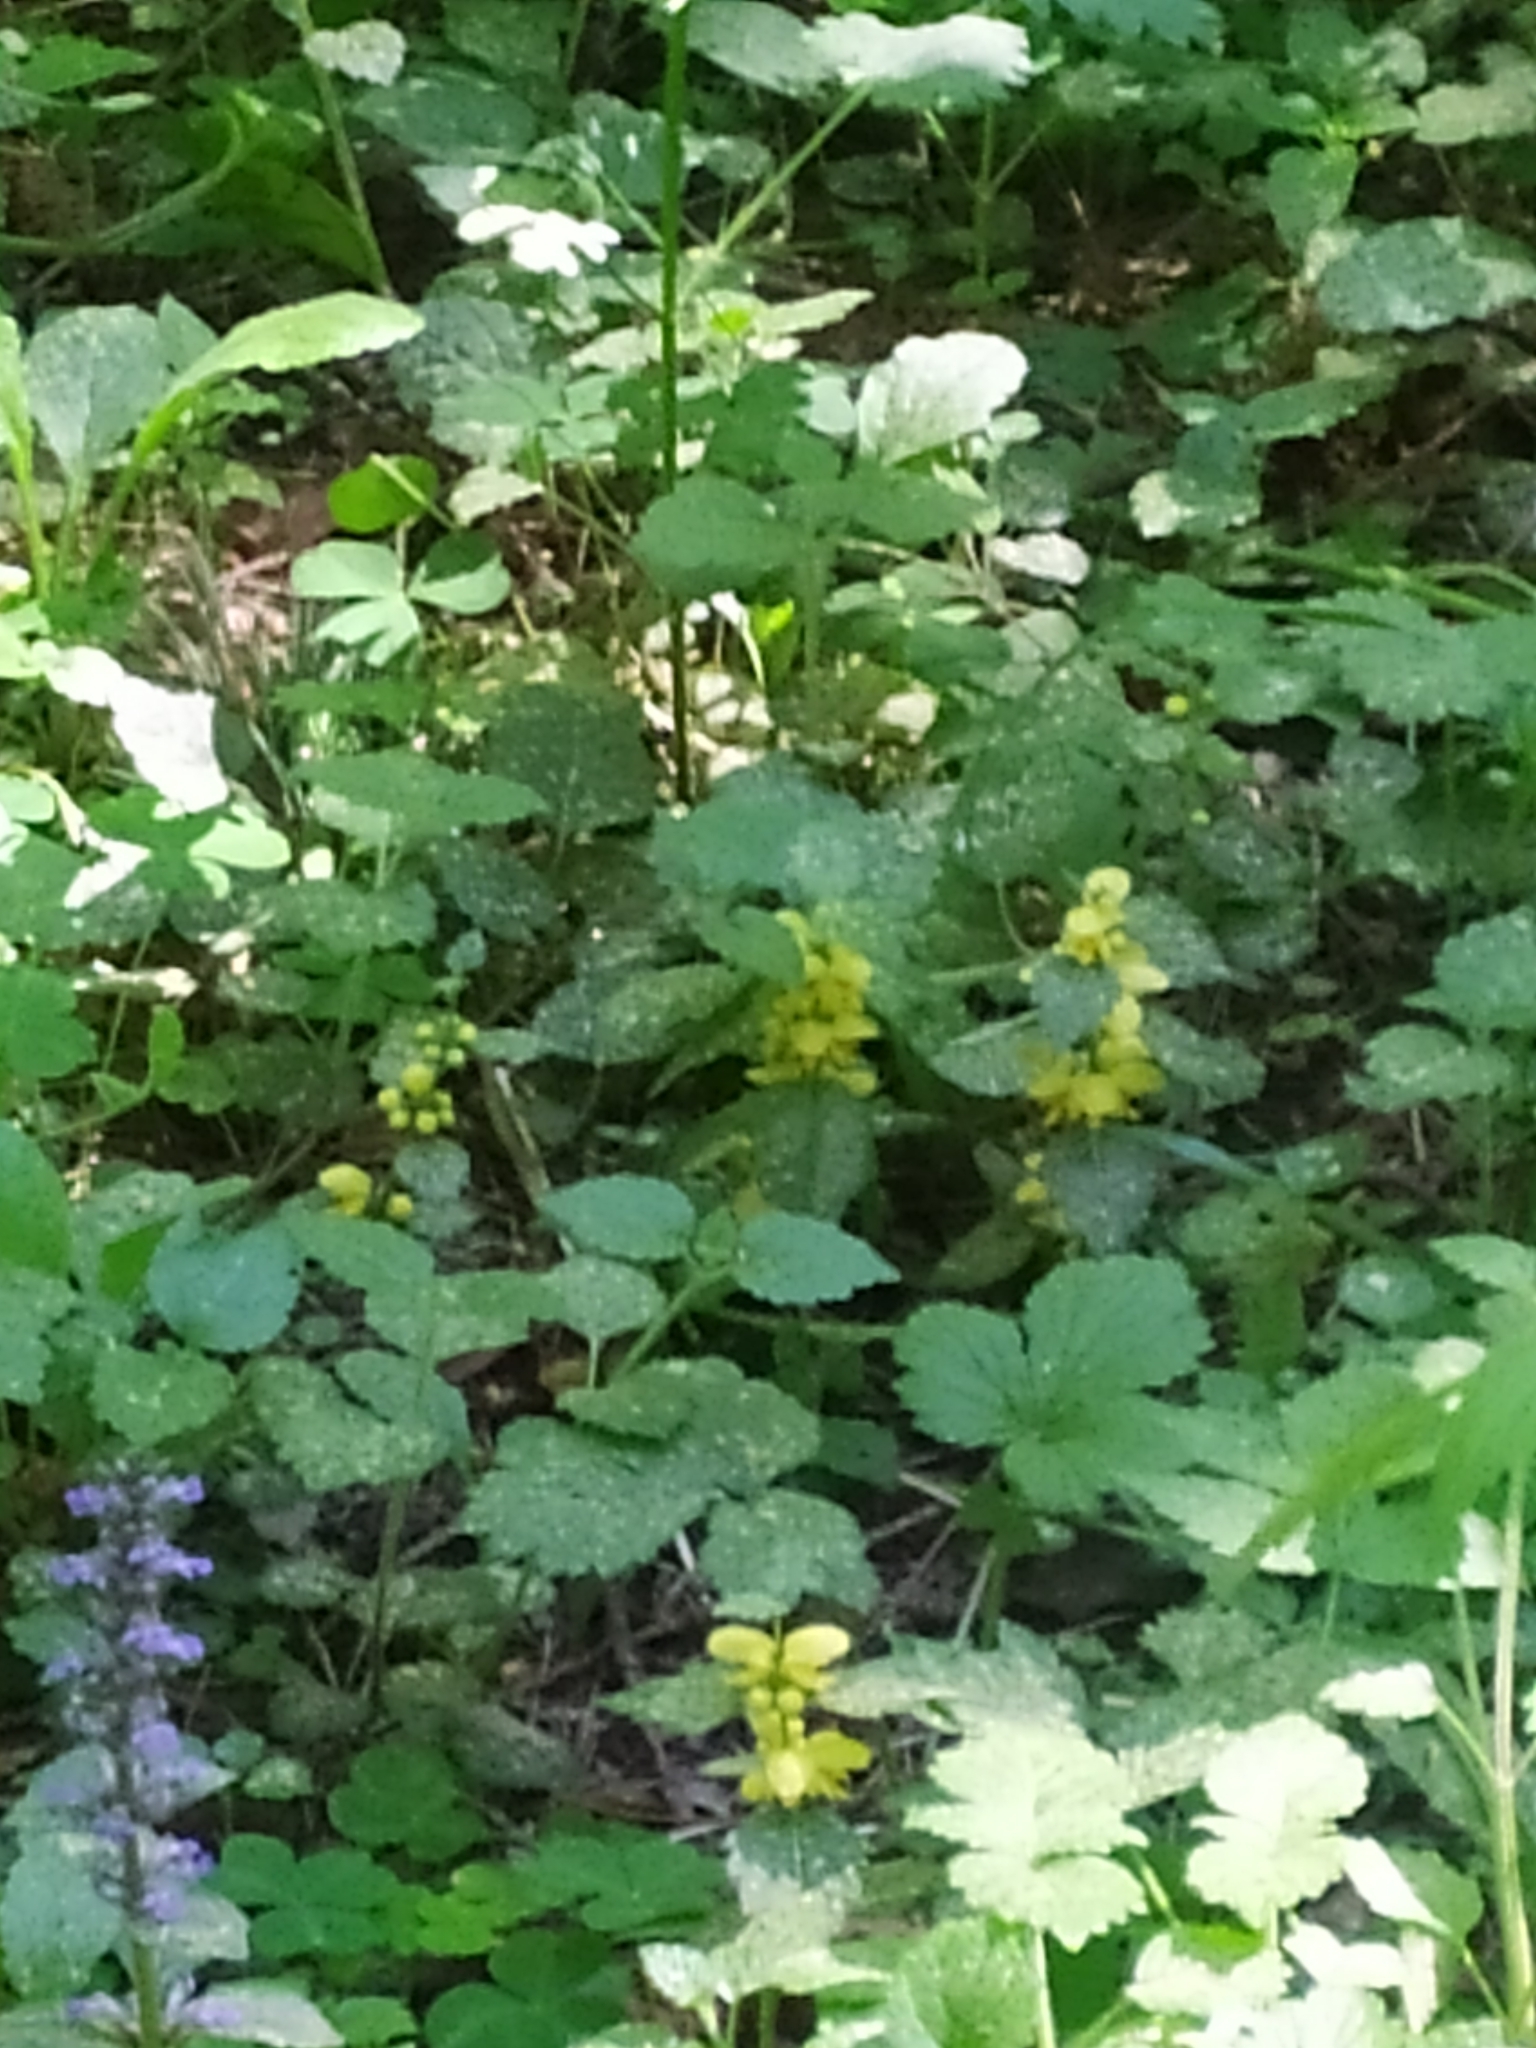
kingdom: Plantae
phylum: Tracheophyta
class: Magnoliopsida
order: Lamiales
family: Lamiaceae
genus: Lamium
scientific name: Lamium galeobdolon
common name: Yellow archangel
